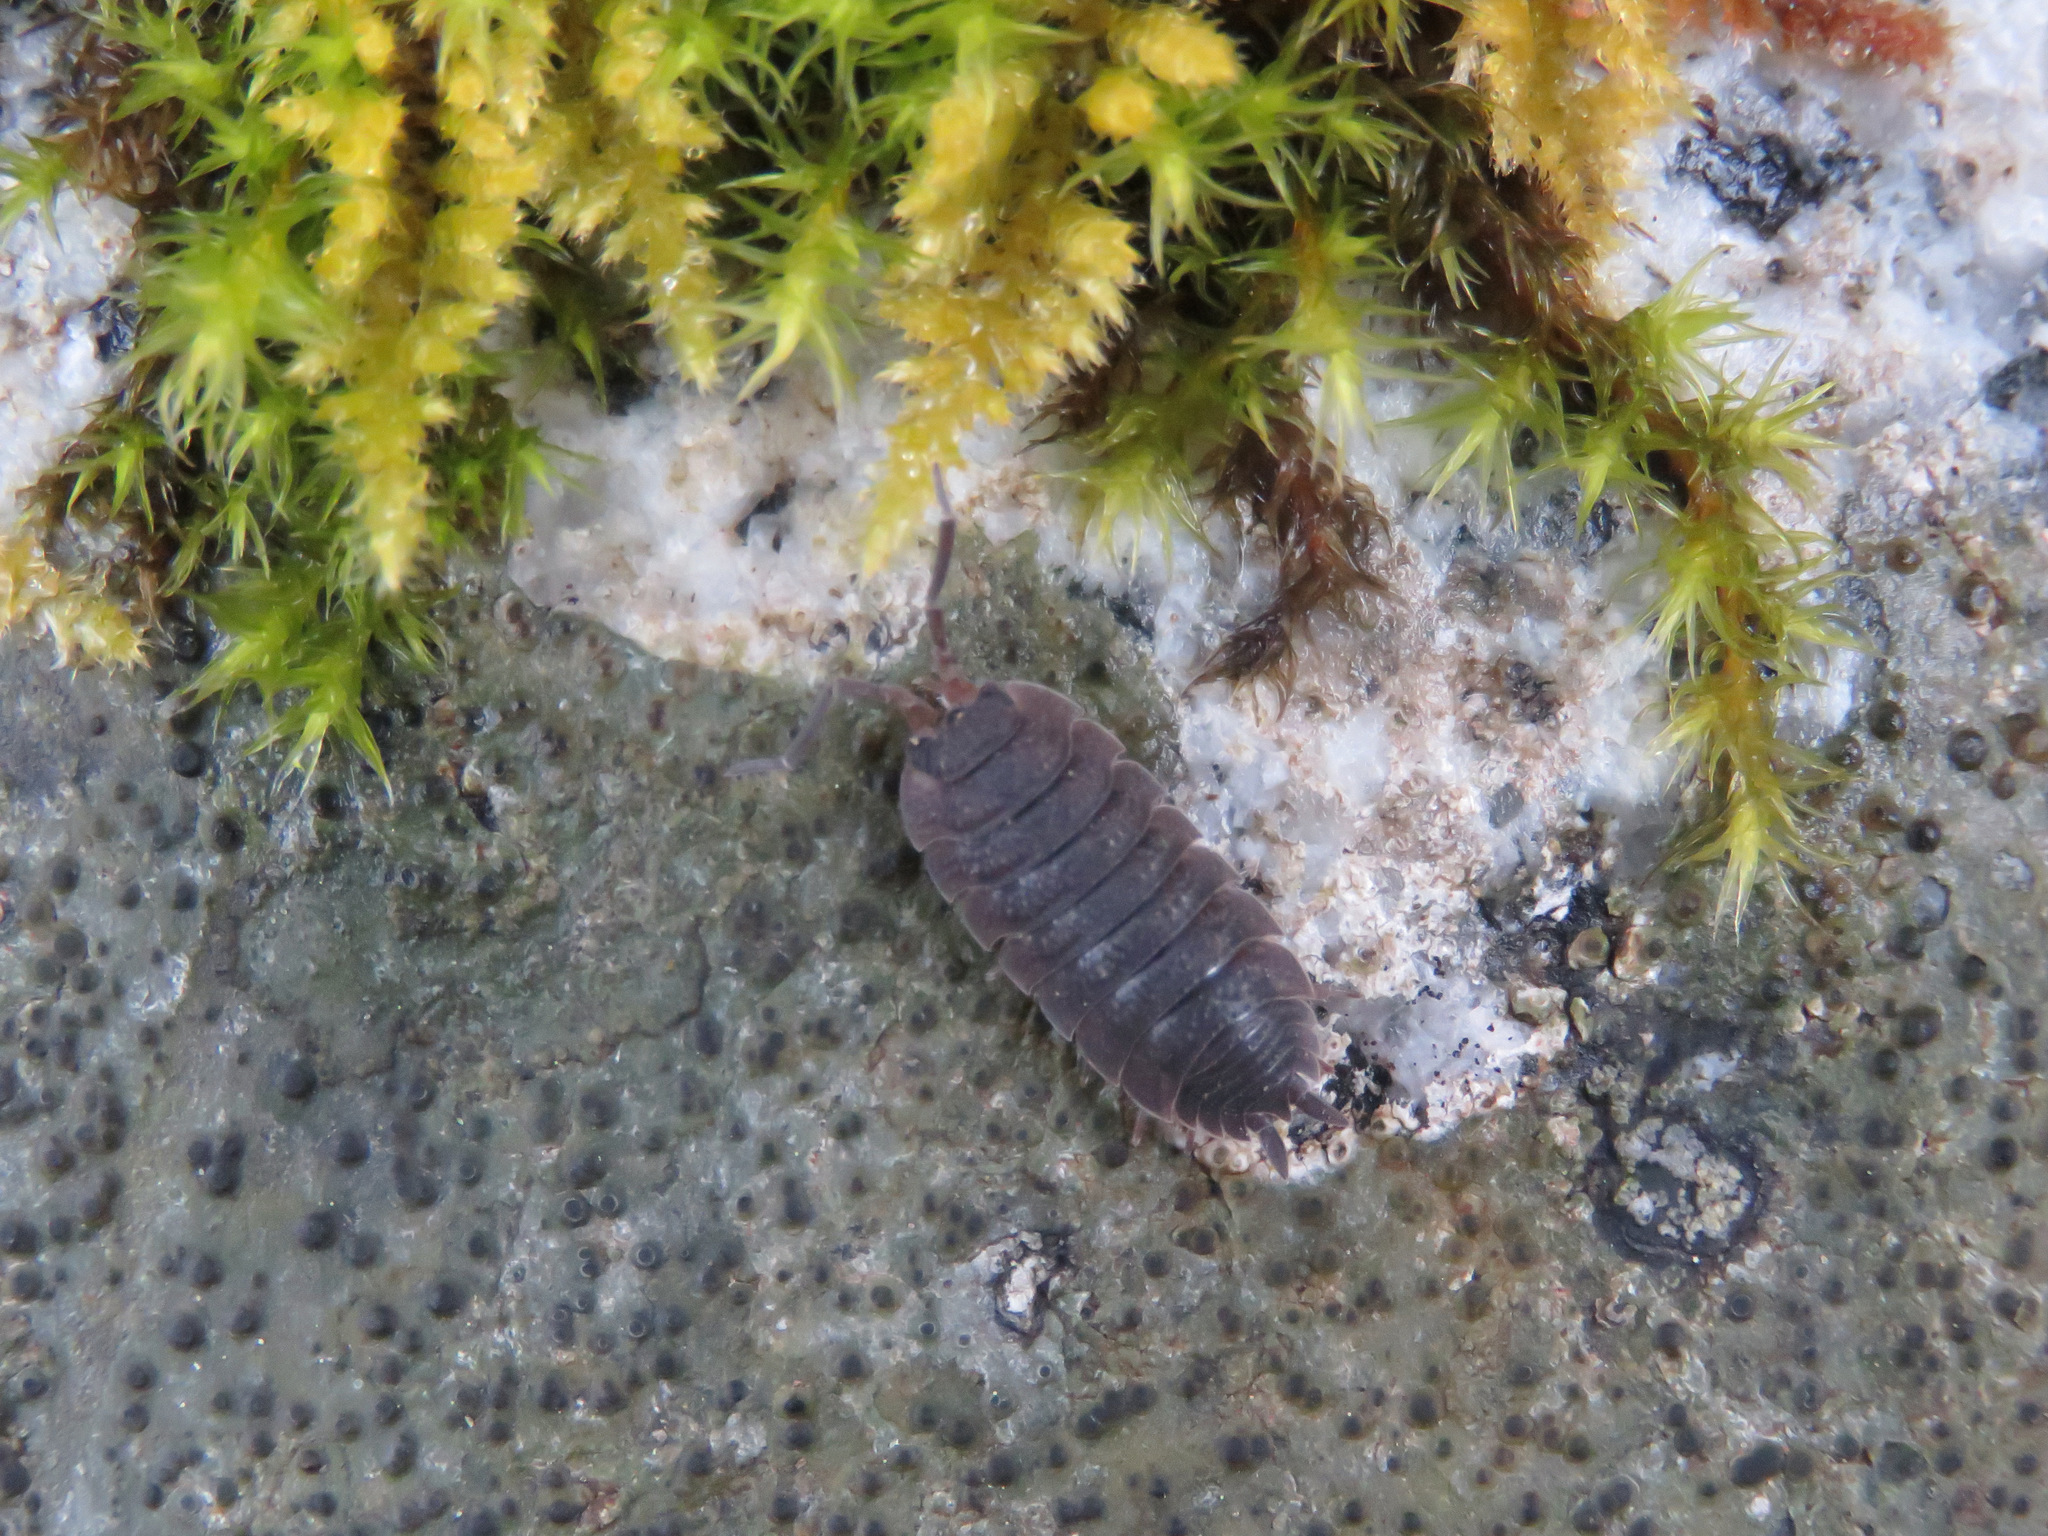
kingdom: Animalia
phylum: Arthropoda
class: Malacostraca
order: Isopoda
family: Porcellionidae
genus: Porcellio
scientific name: Porcellio scaber
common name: Common rough woodlouse
